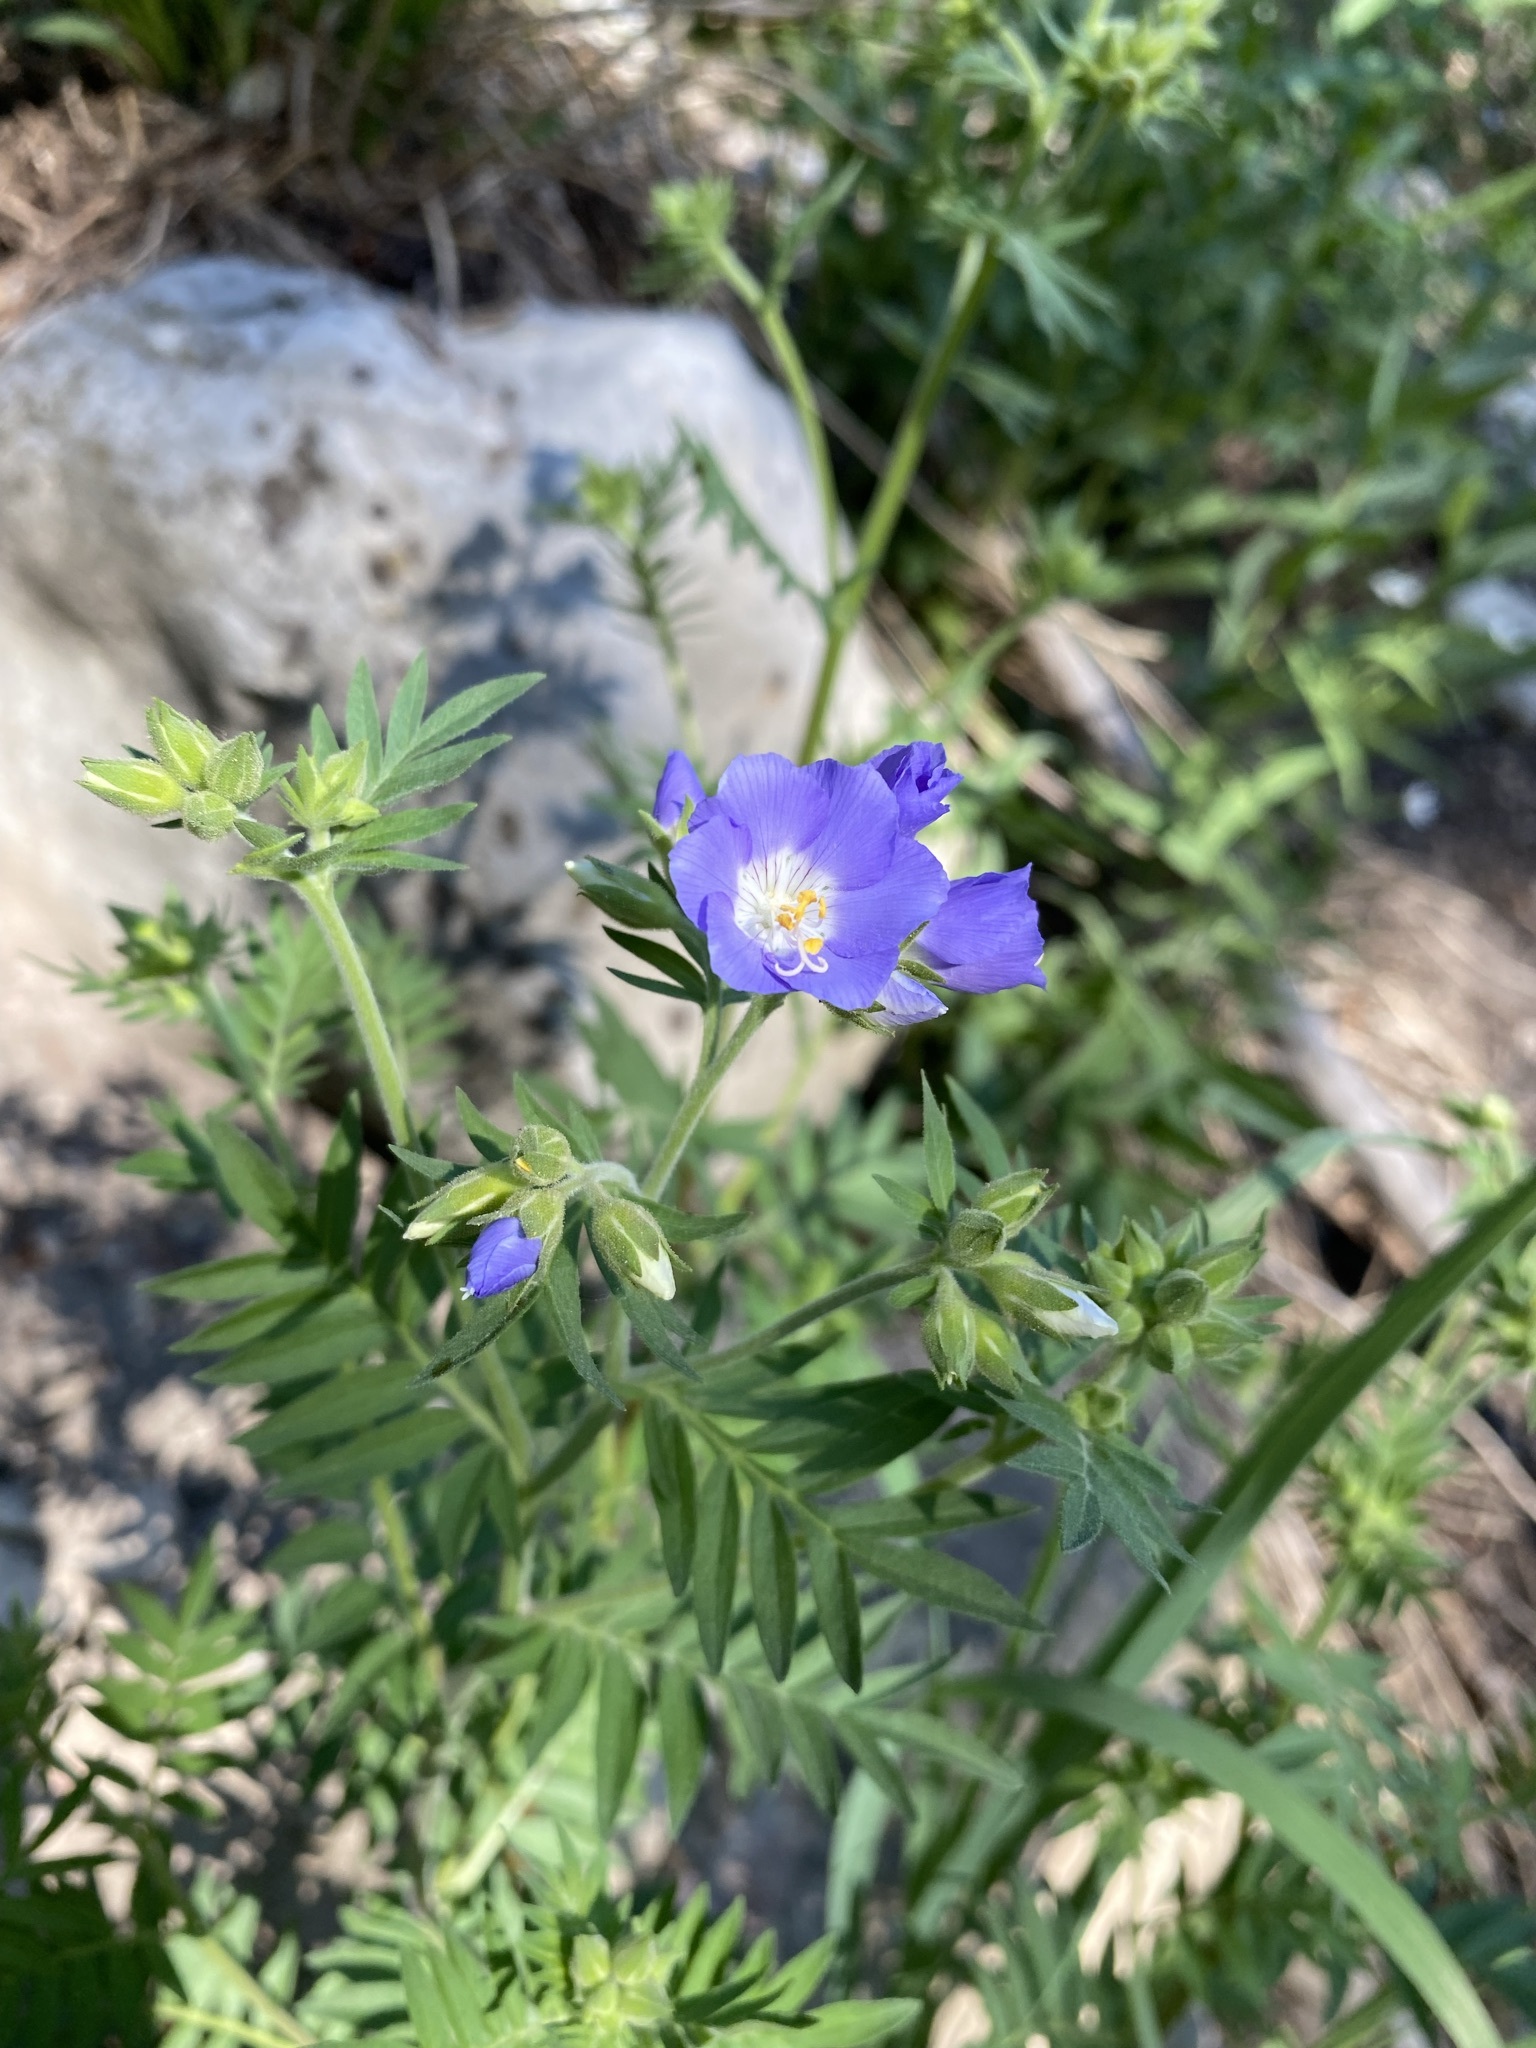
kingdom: Plantae
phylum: Tracheophyta
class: Magnoliopsida
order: Ericales
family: Polemoniaceae
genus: Polemonium
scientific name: Polemonium foliosissimum
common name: Leafy jacob's-ladder
